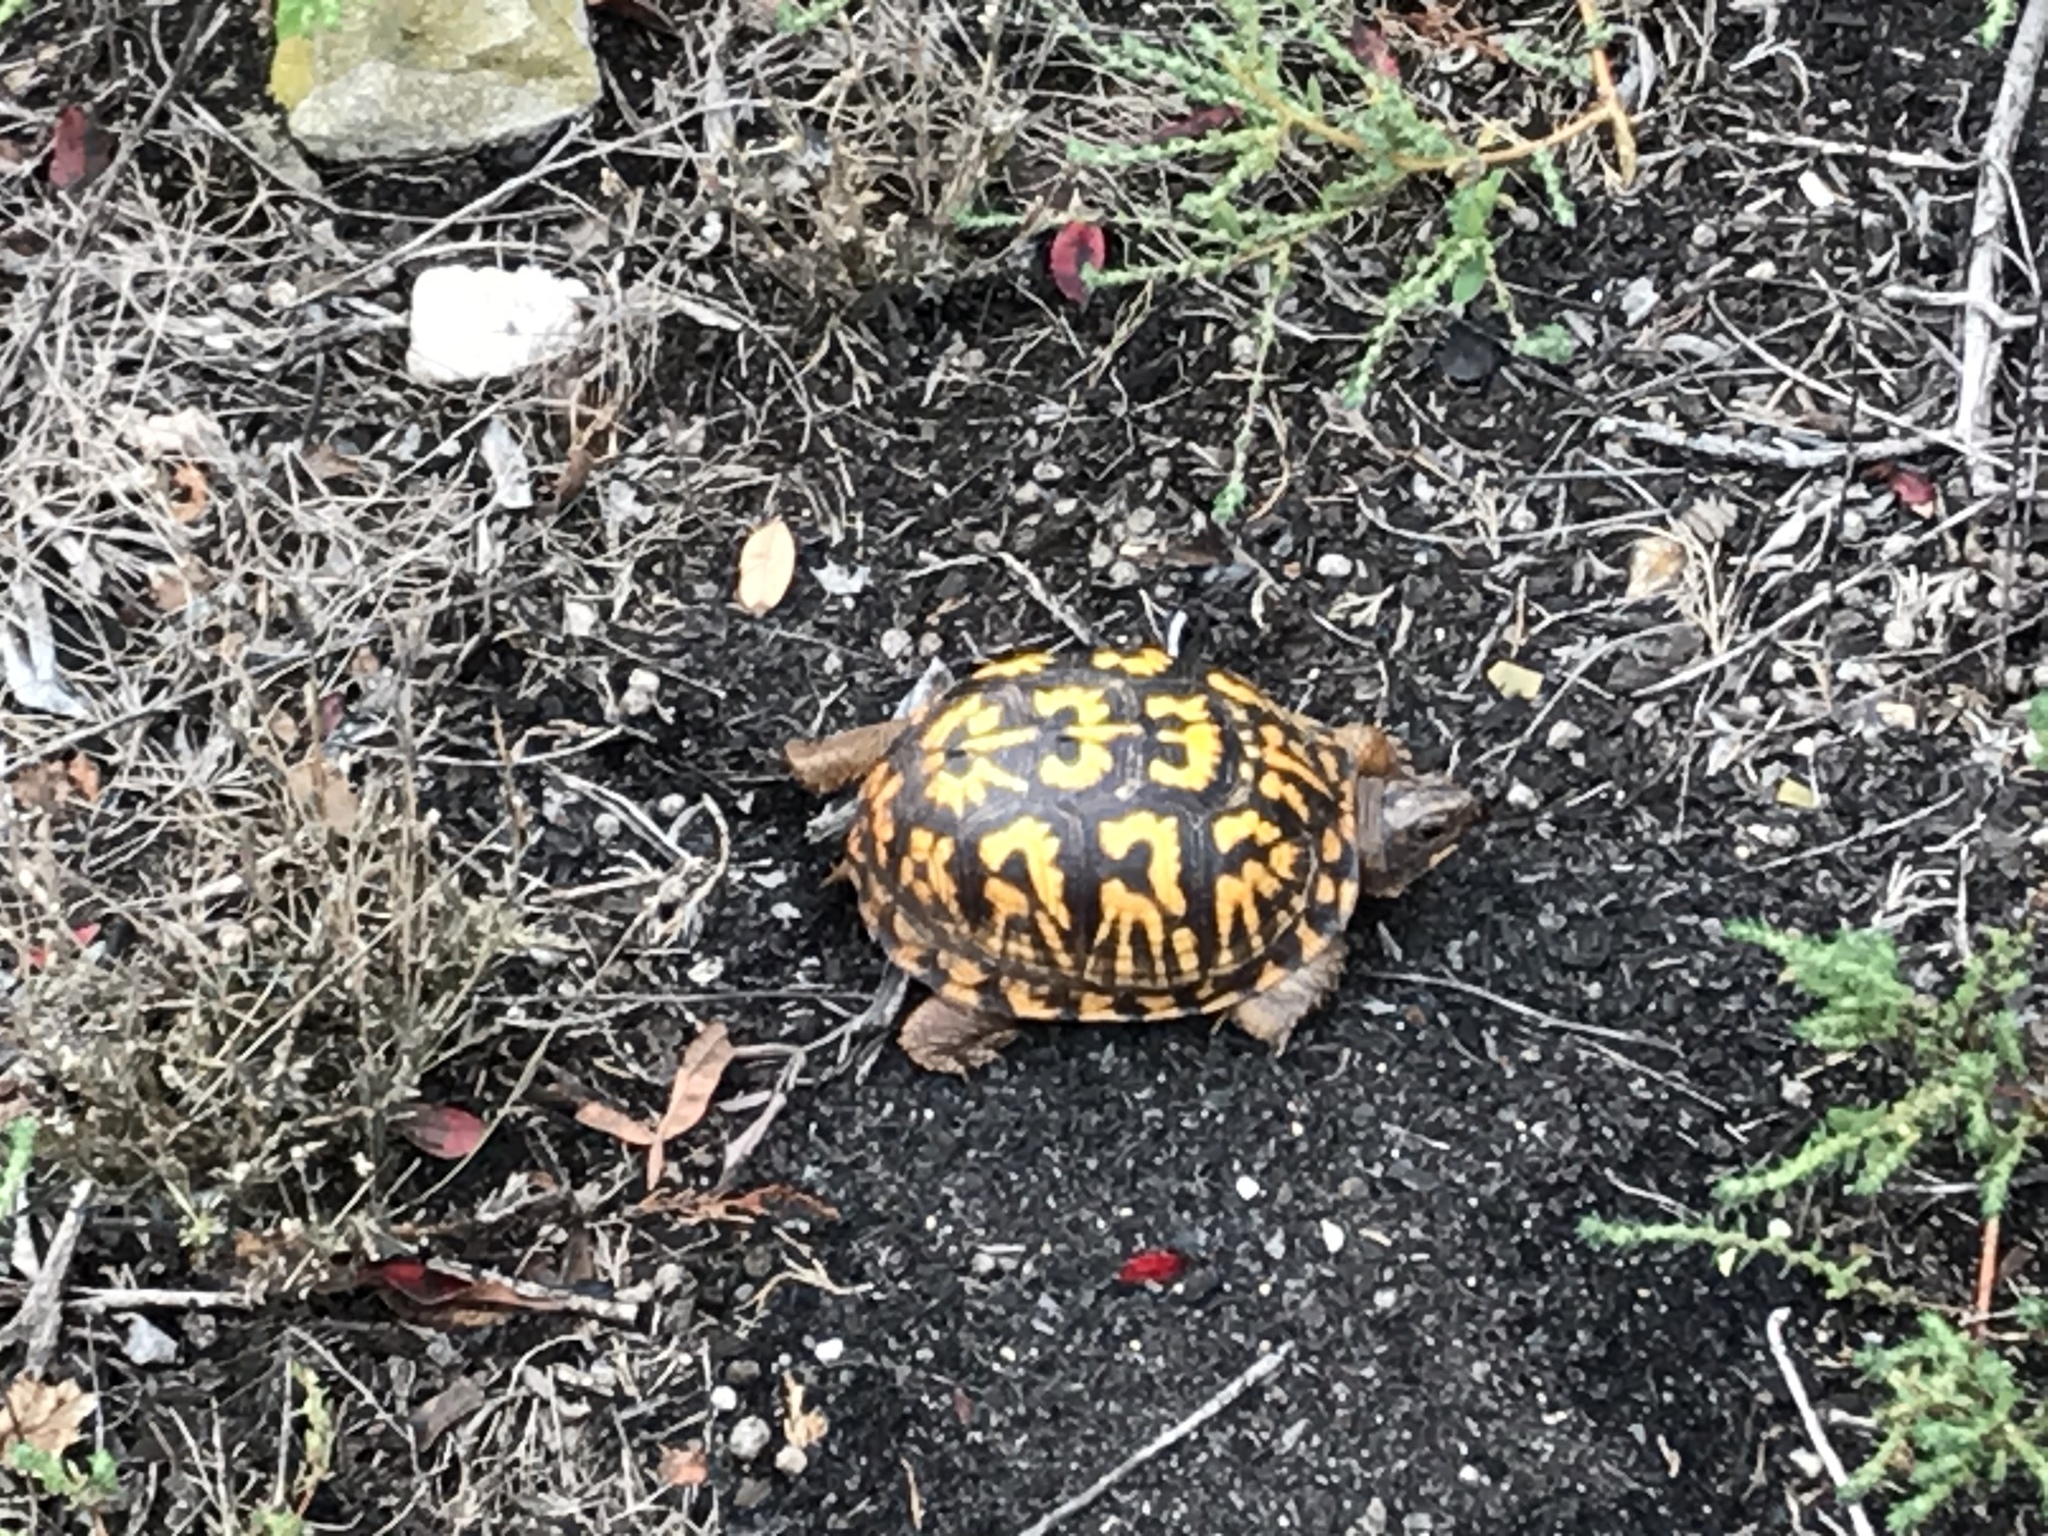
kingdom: Animalia
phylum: Chordata
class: Testudines
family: Emydidae
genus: Terrapene
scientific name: Terrapene carolina
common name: Common box turtle
